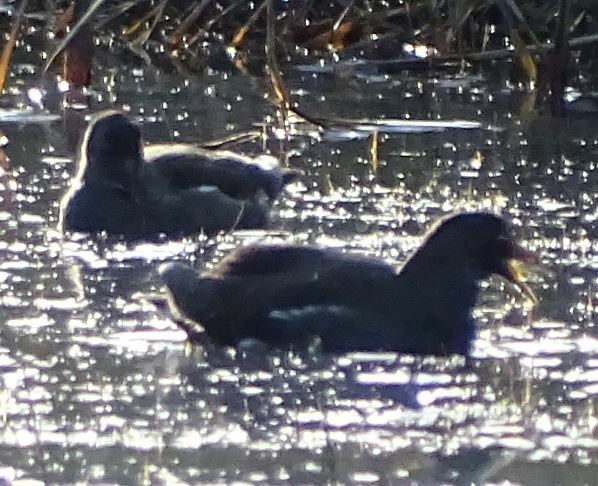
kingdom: Animalia
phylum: Chordata
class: Aves
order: Gruiformes
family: Rallidae
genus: Gallinula
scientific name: Gallinula chloropus
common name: Common moorhen
